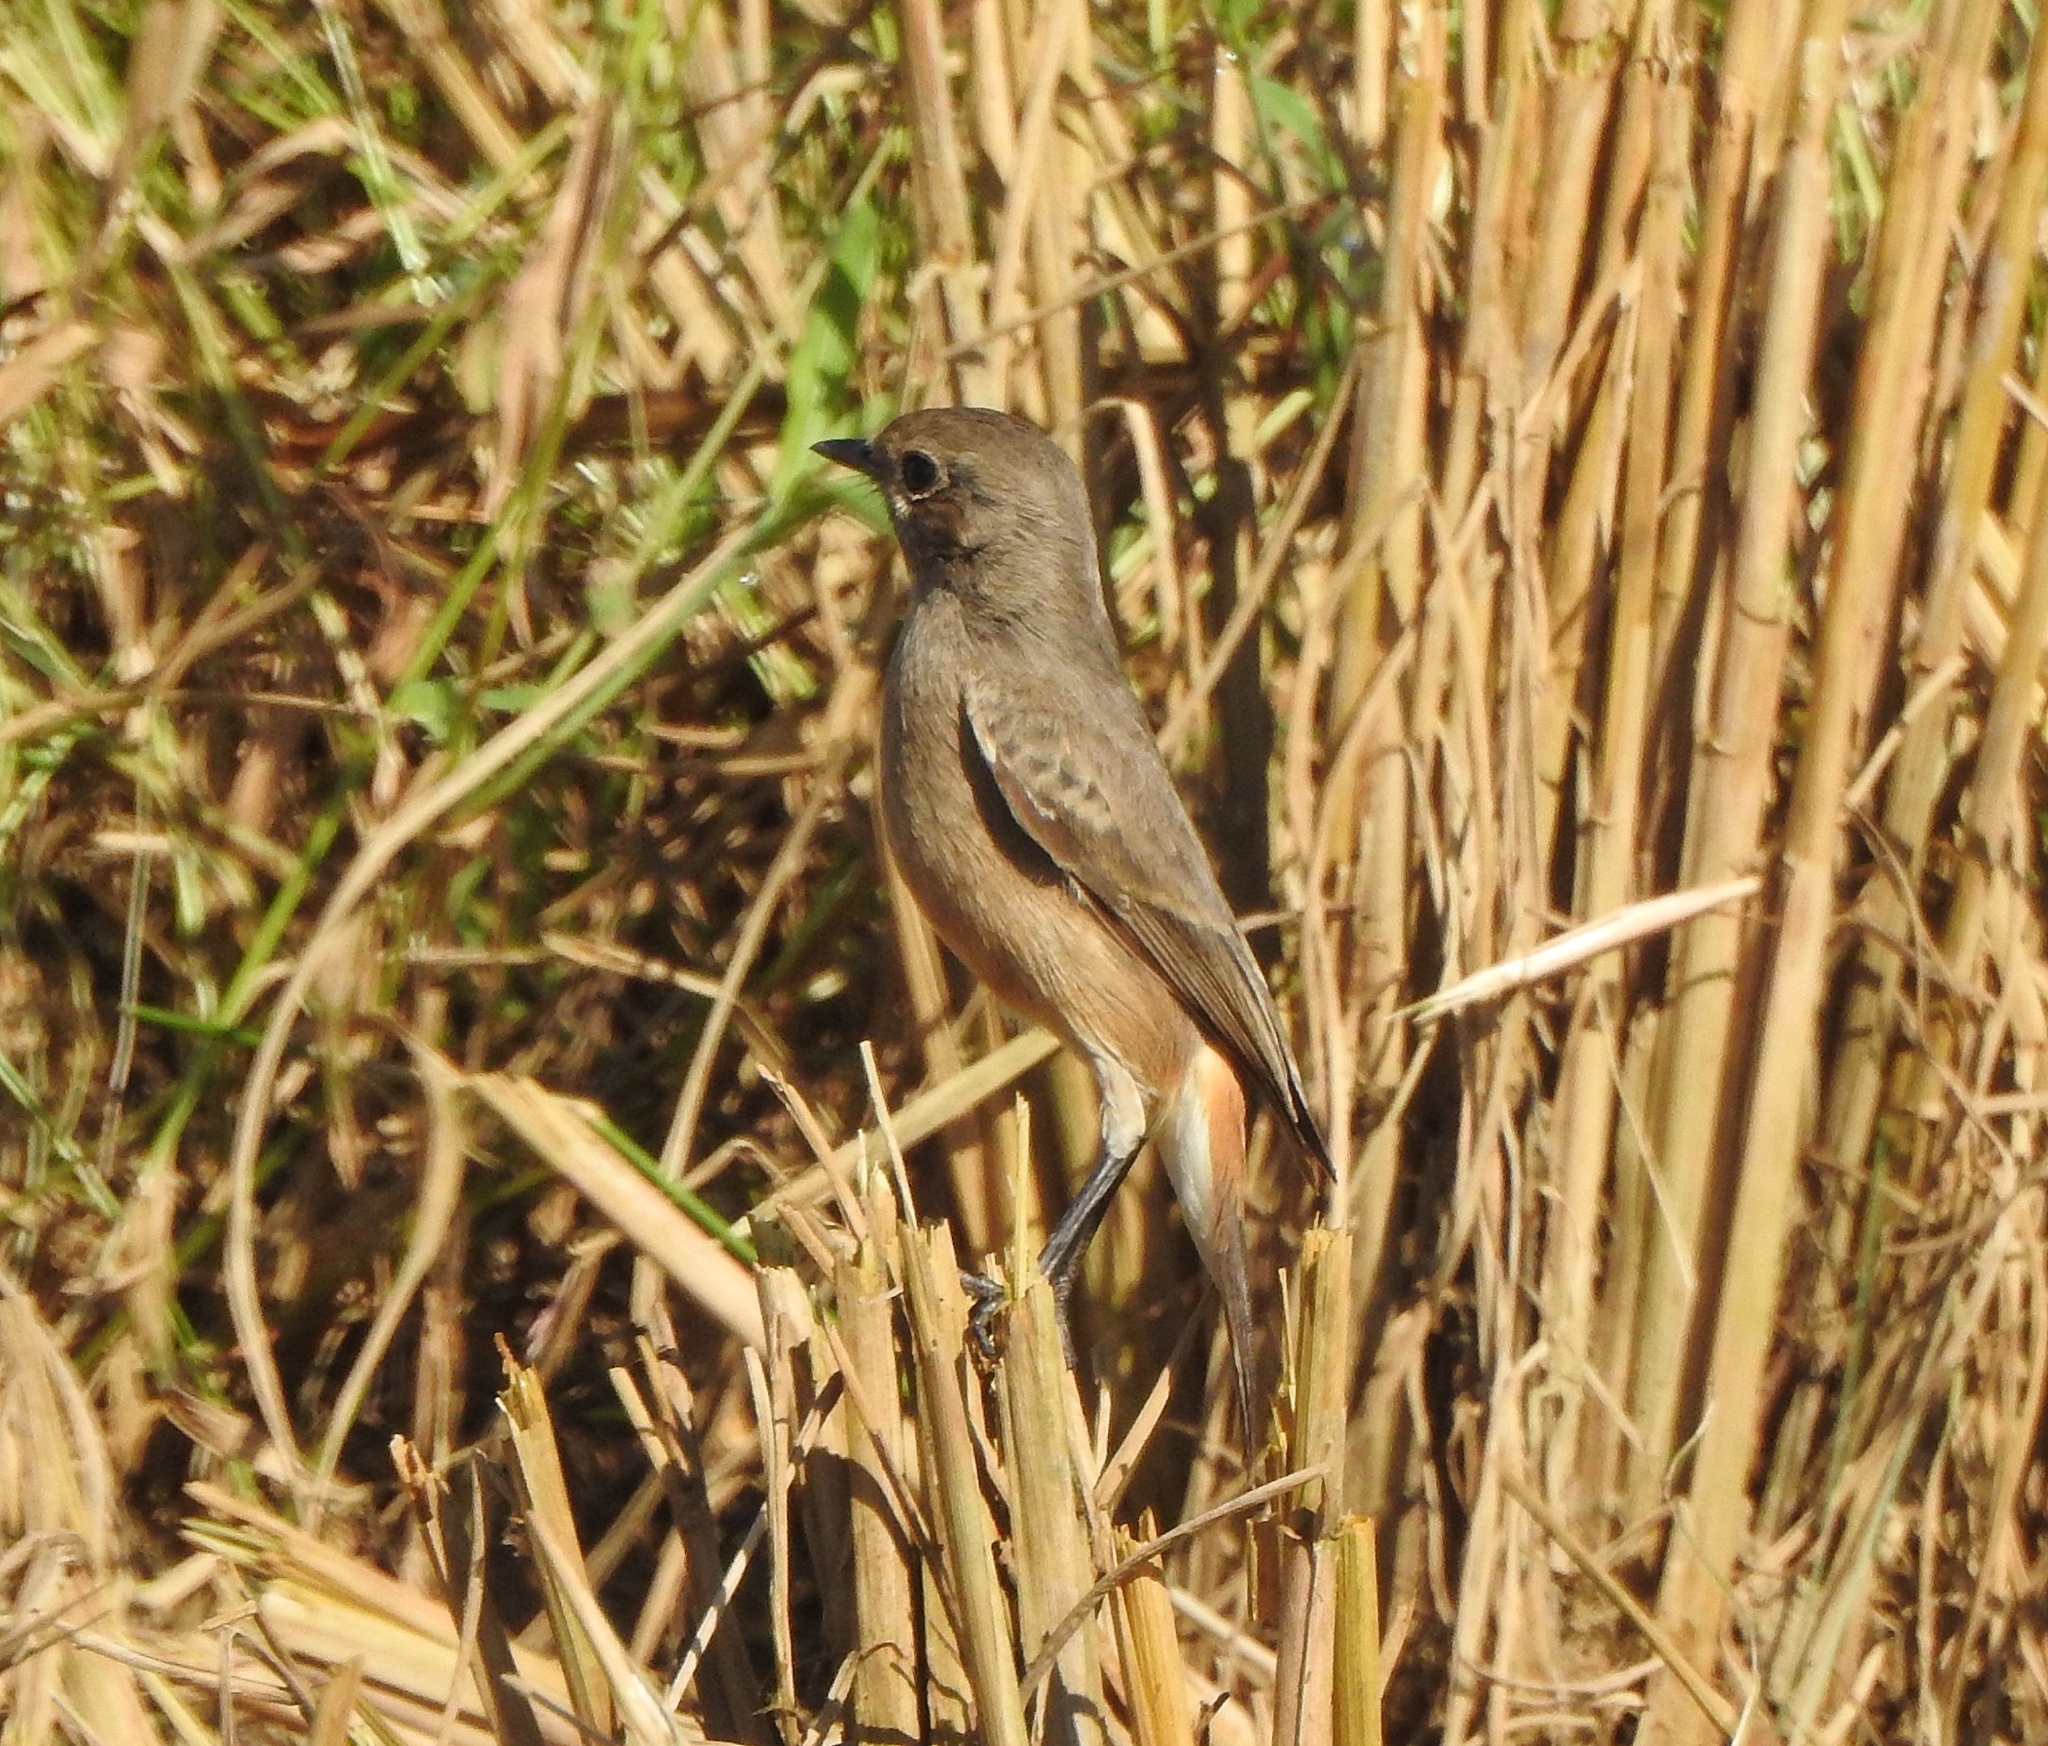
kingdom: Animalia
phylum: Chordata
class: Aves
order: Passeriformes
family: Muscicapidae
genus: Saxicola
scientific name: Saxicola caprata
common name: Pied bush chat
